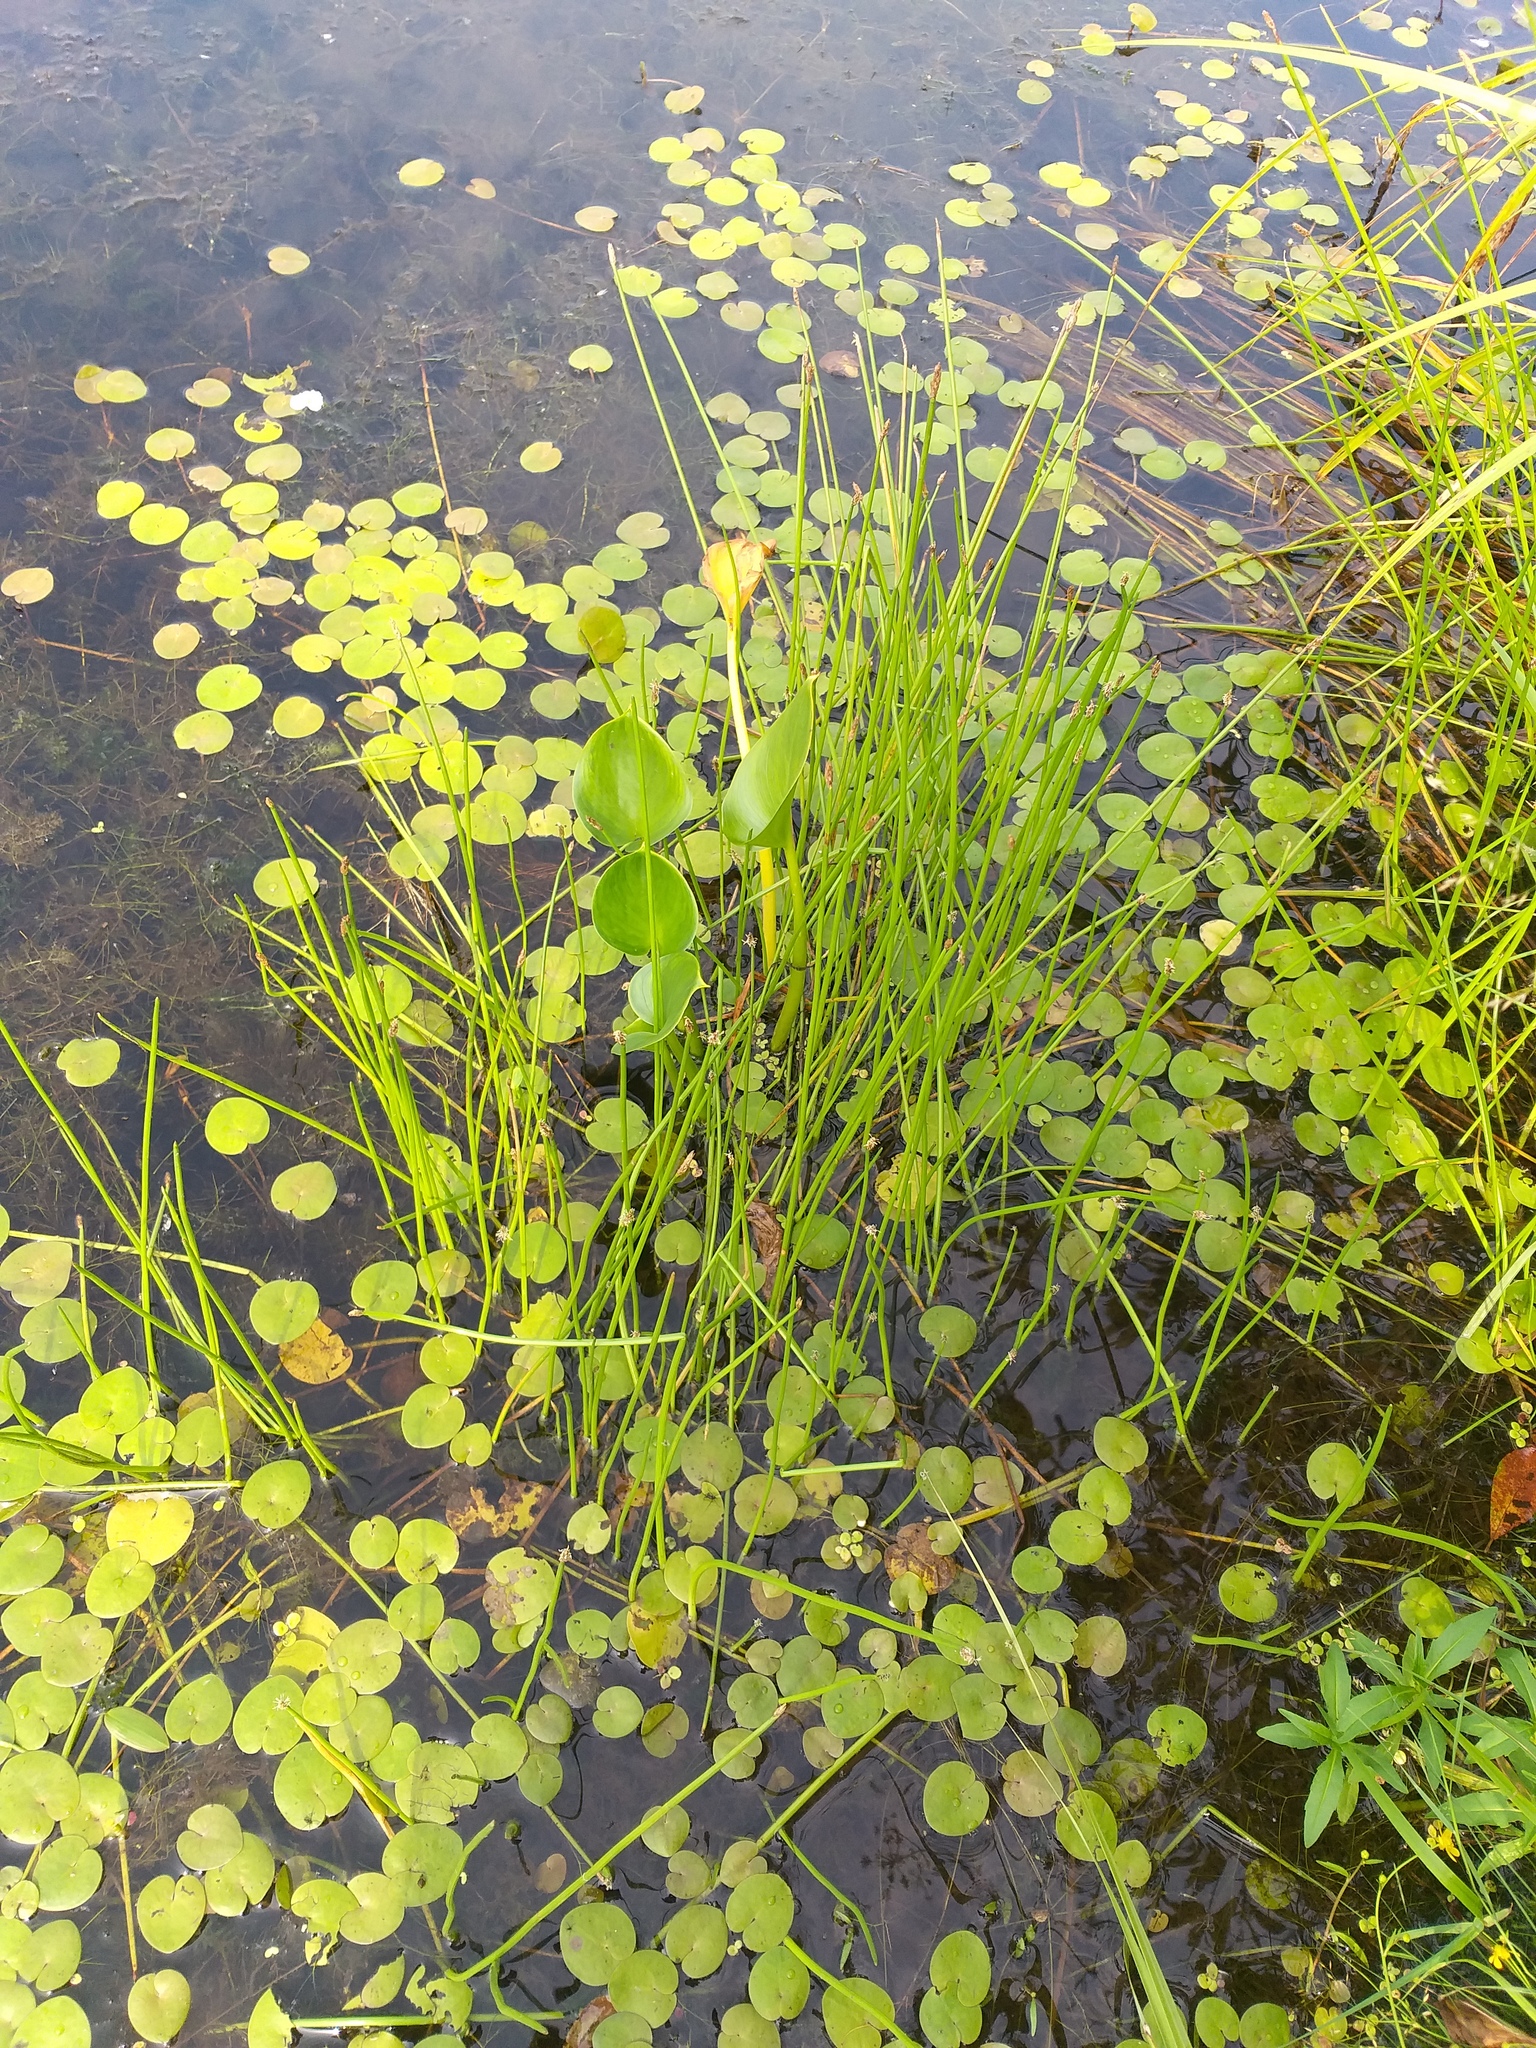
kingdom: Plantae
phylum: Tracheophyta
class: Liliopsida
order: Poales
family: Cyperaceae
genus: Eleocharis
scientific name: Eleocharis palustris
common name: Common spike-rush
